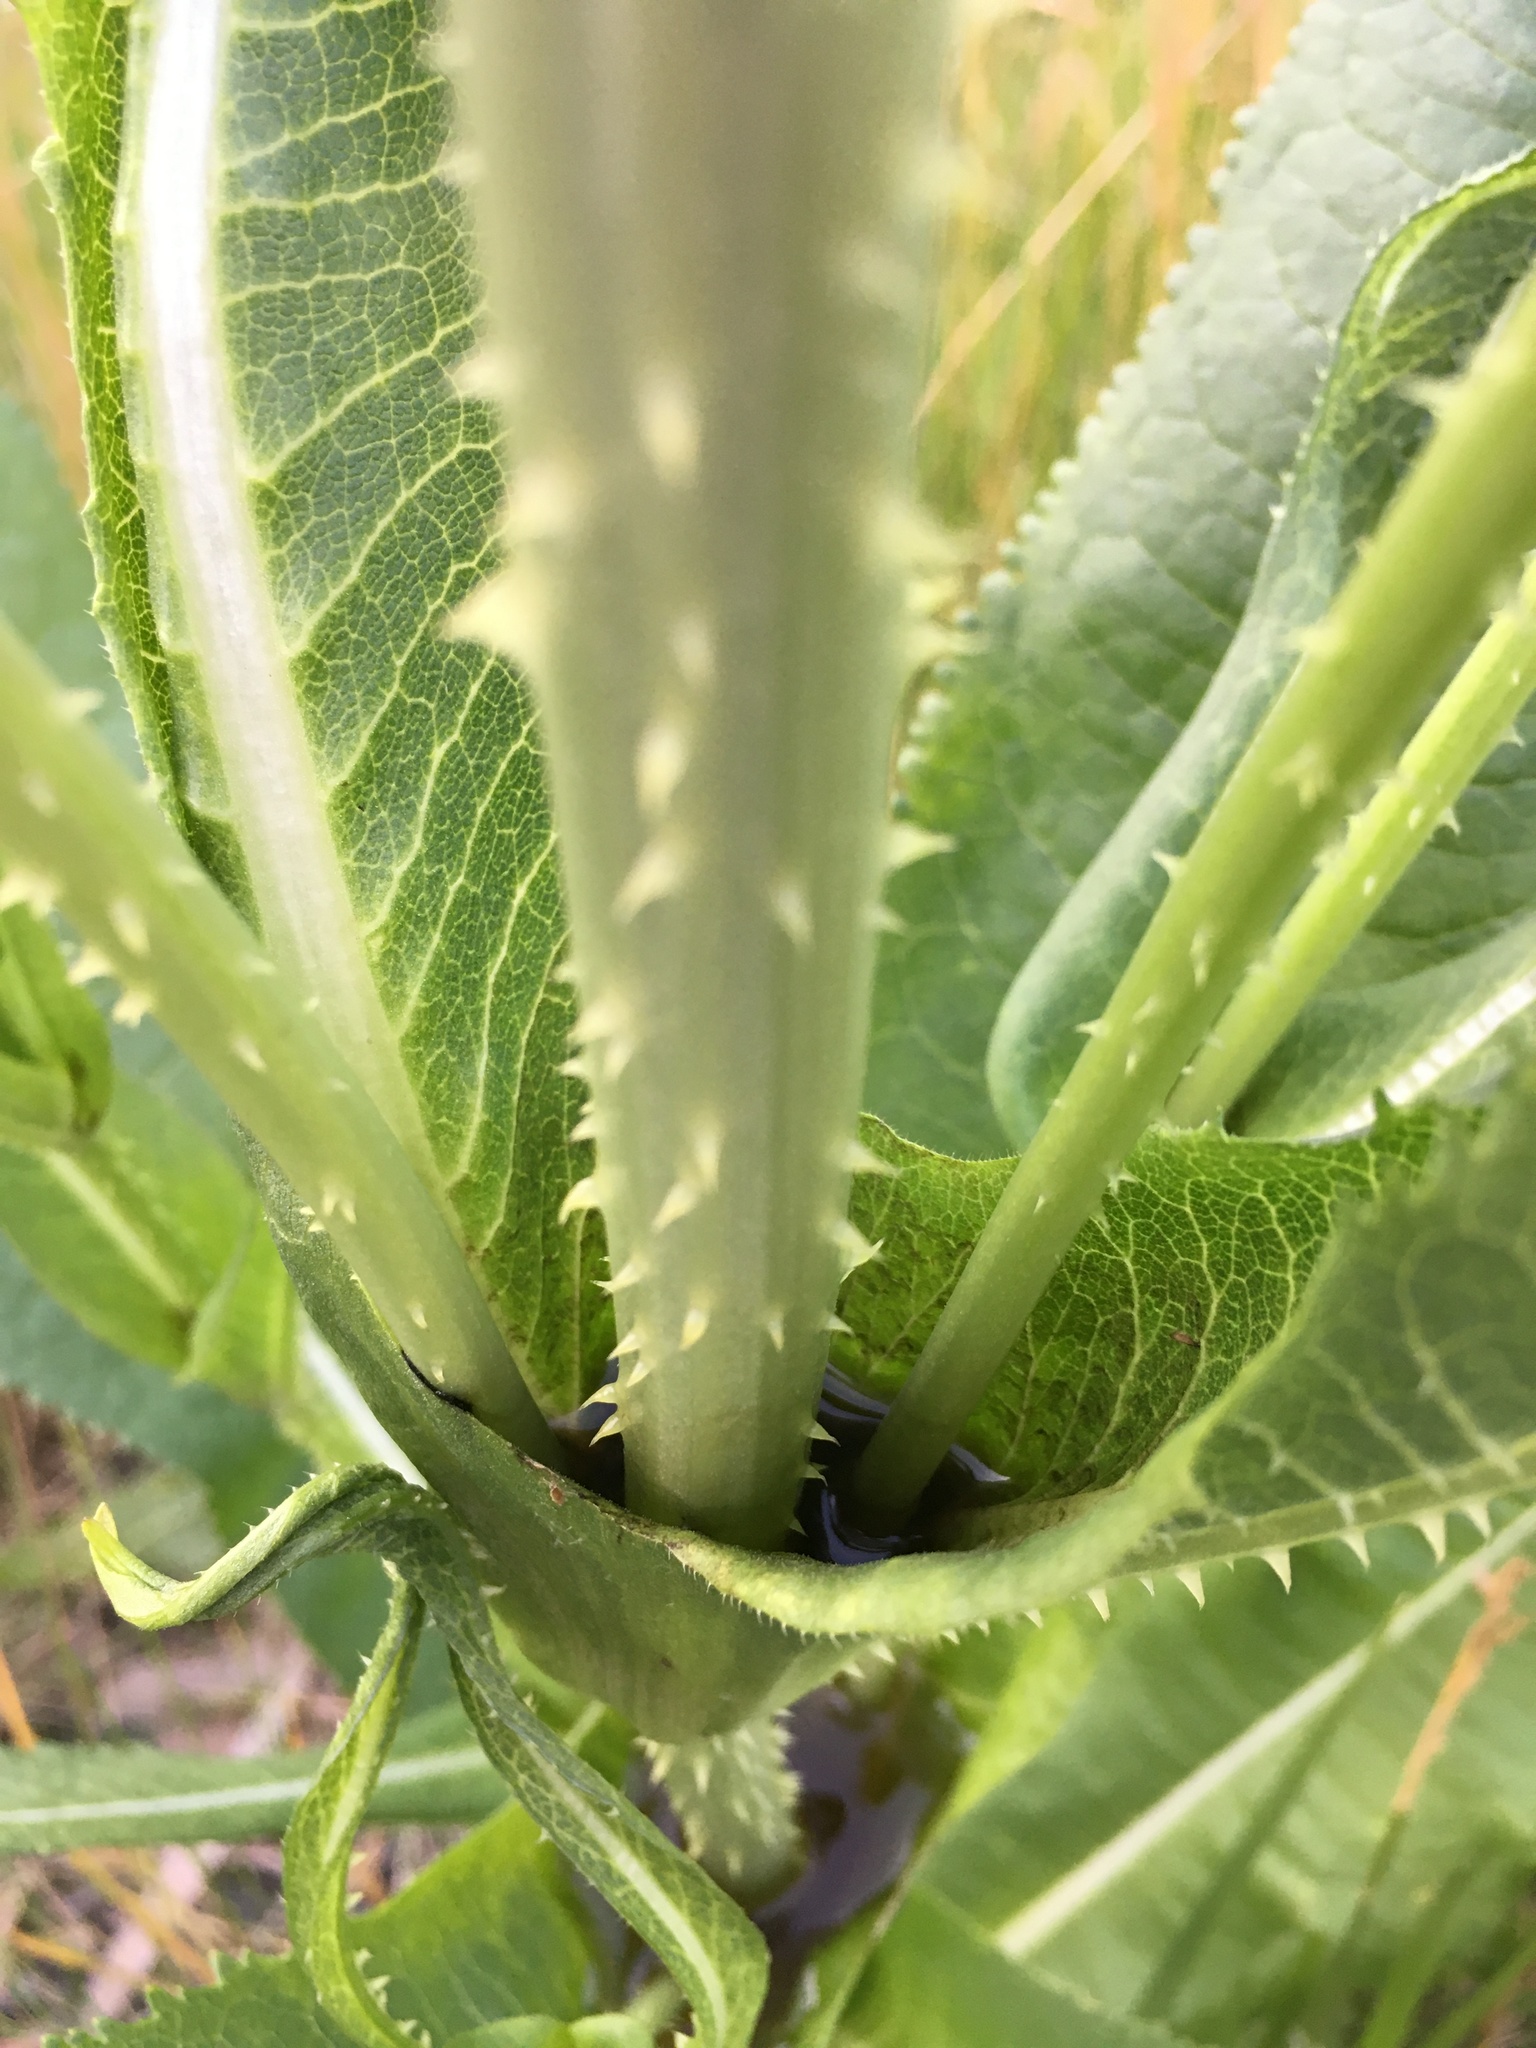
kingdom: Plantae
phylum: Tracheophyta
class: Magnoliopsida
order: Dipsacales
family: Caprifoliaceae
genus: Dipsacus
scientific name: Dipsacus fullonum
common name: Teasel
